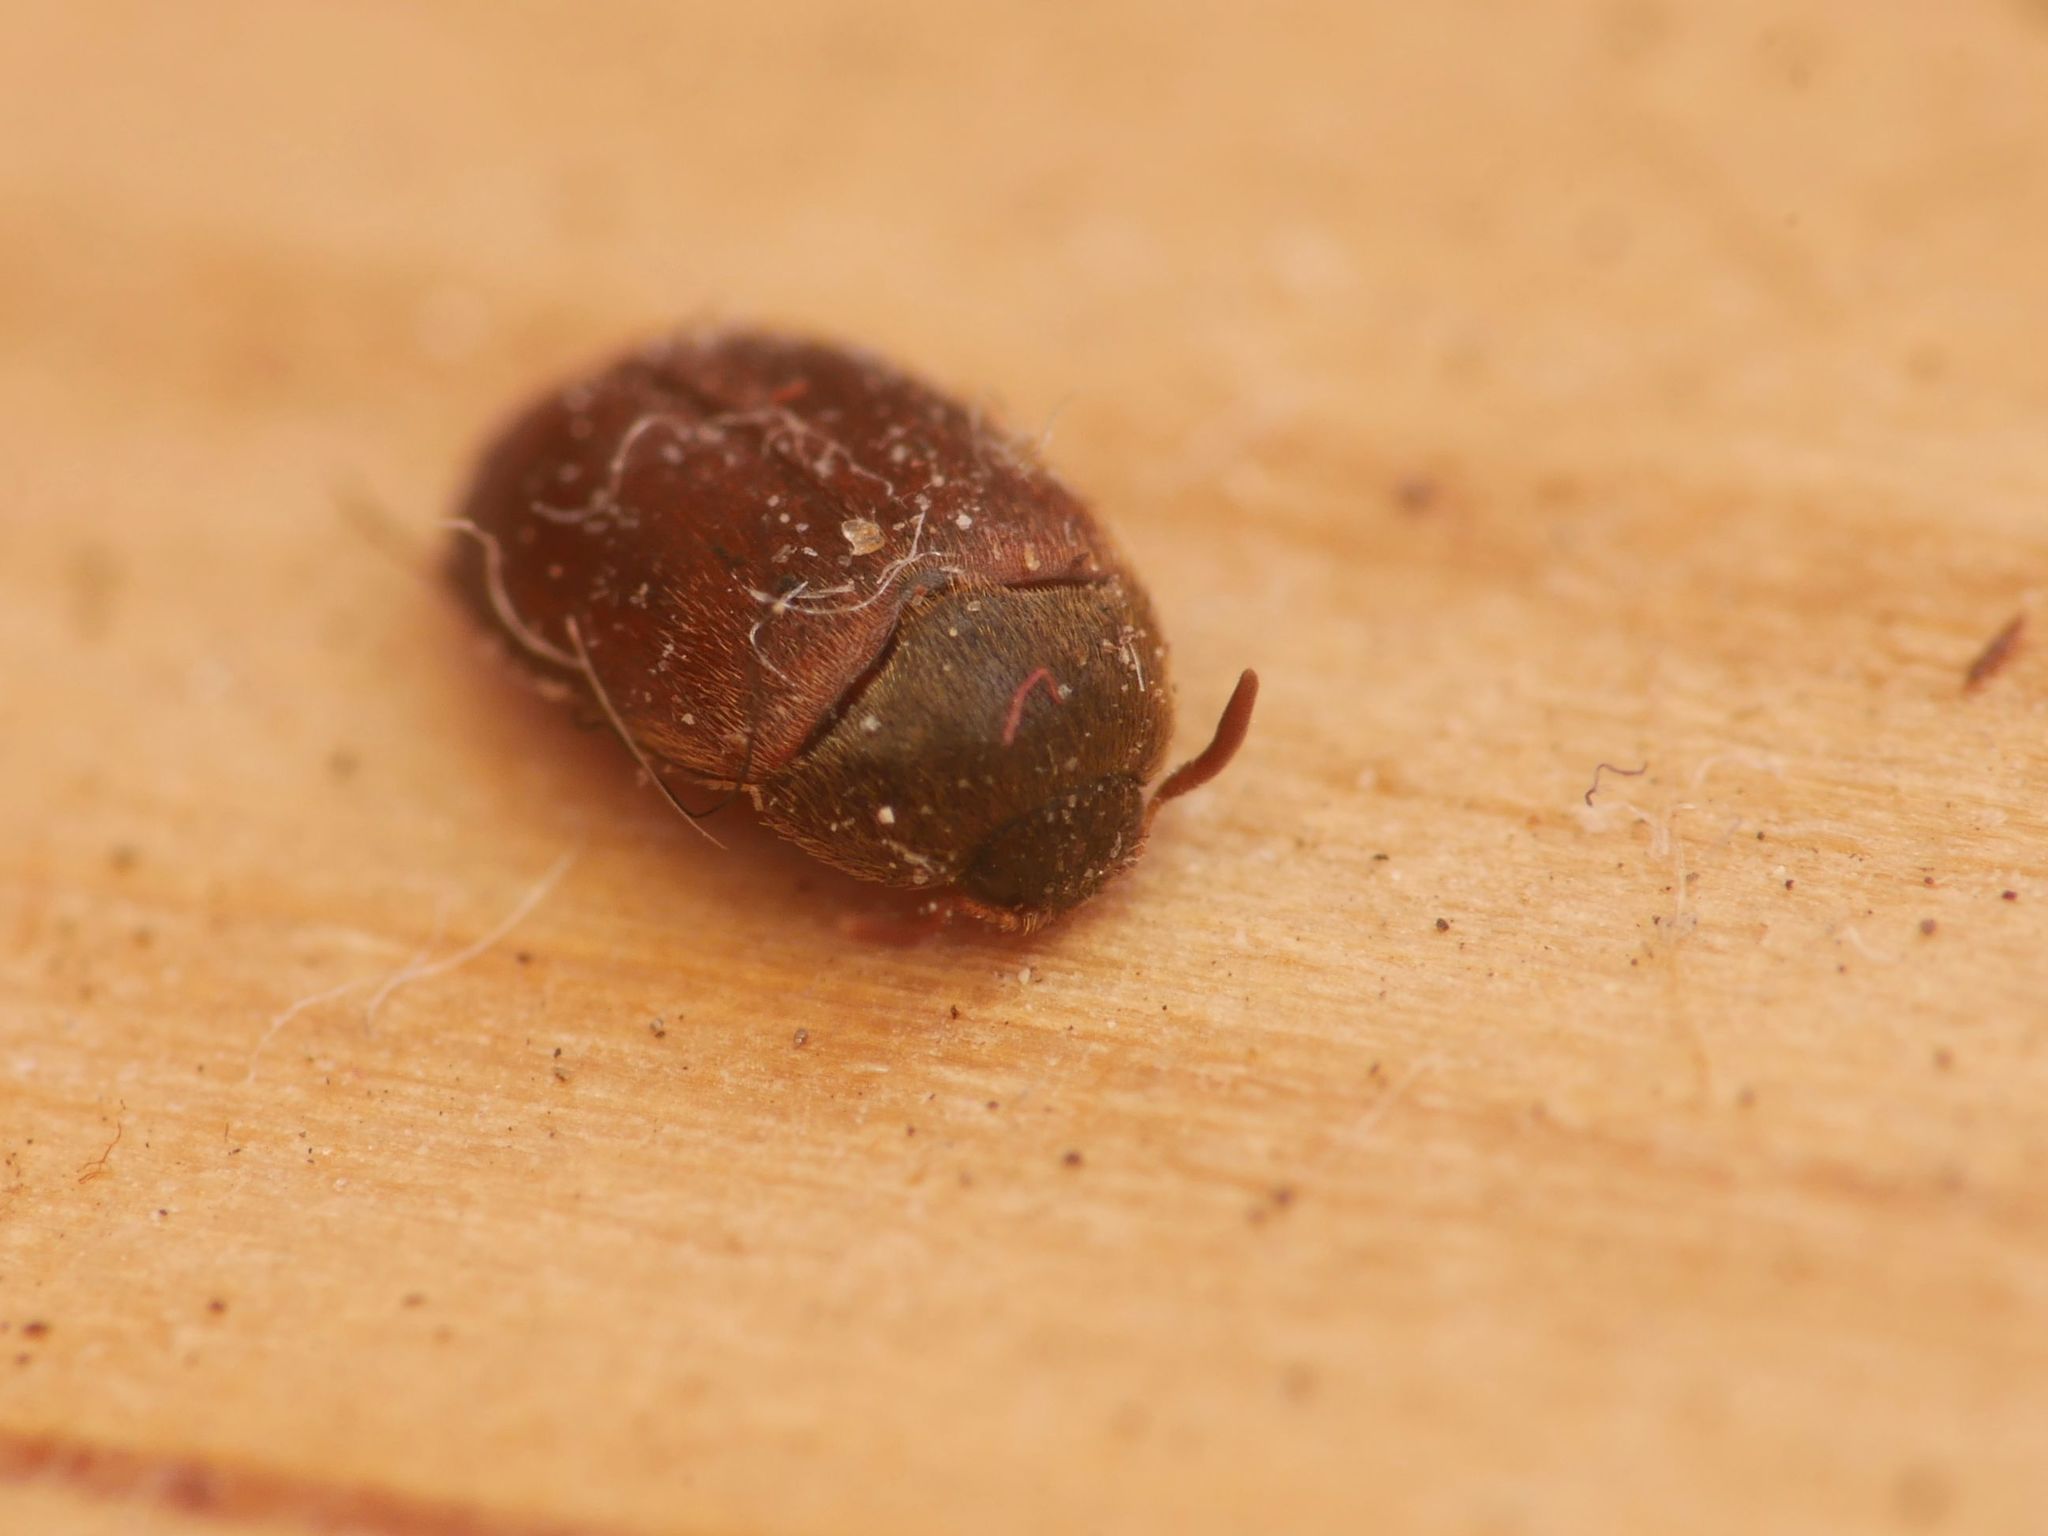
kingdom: Animalia
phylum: Arthropoda
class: Insecta
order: Coleoptera
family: Dermestidae
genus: Attagenus
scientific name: Attagenus smirnovi
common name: Brown carpet beetle
